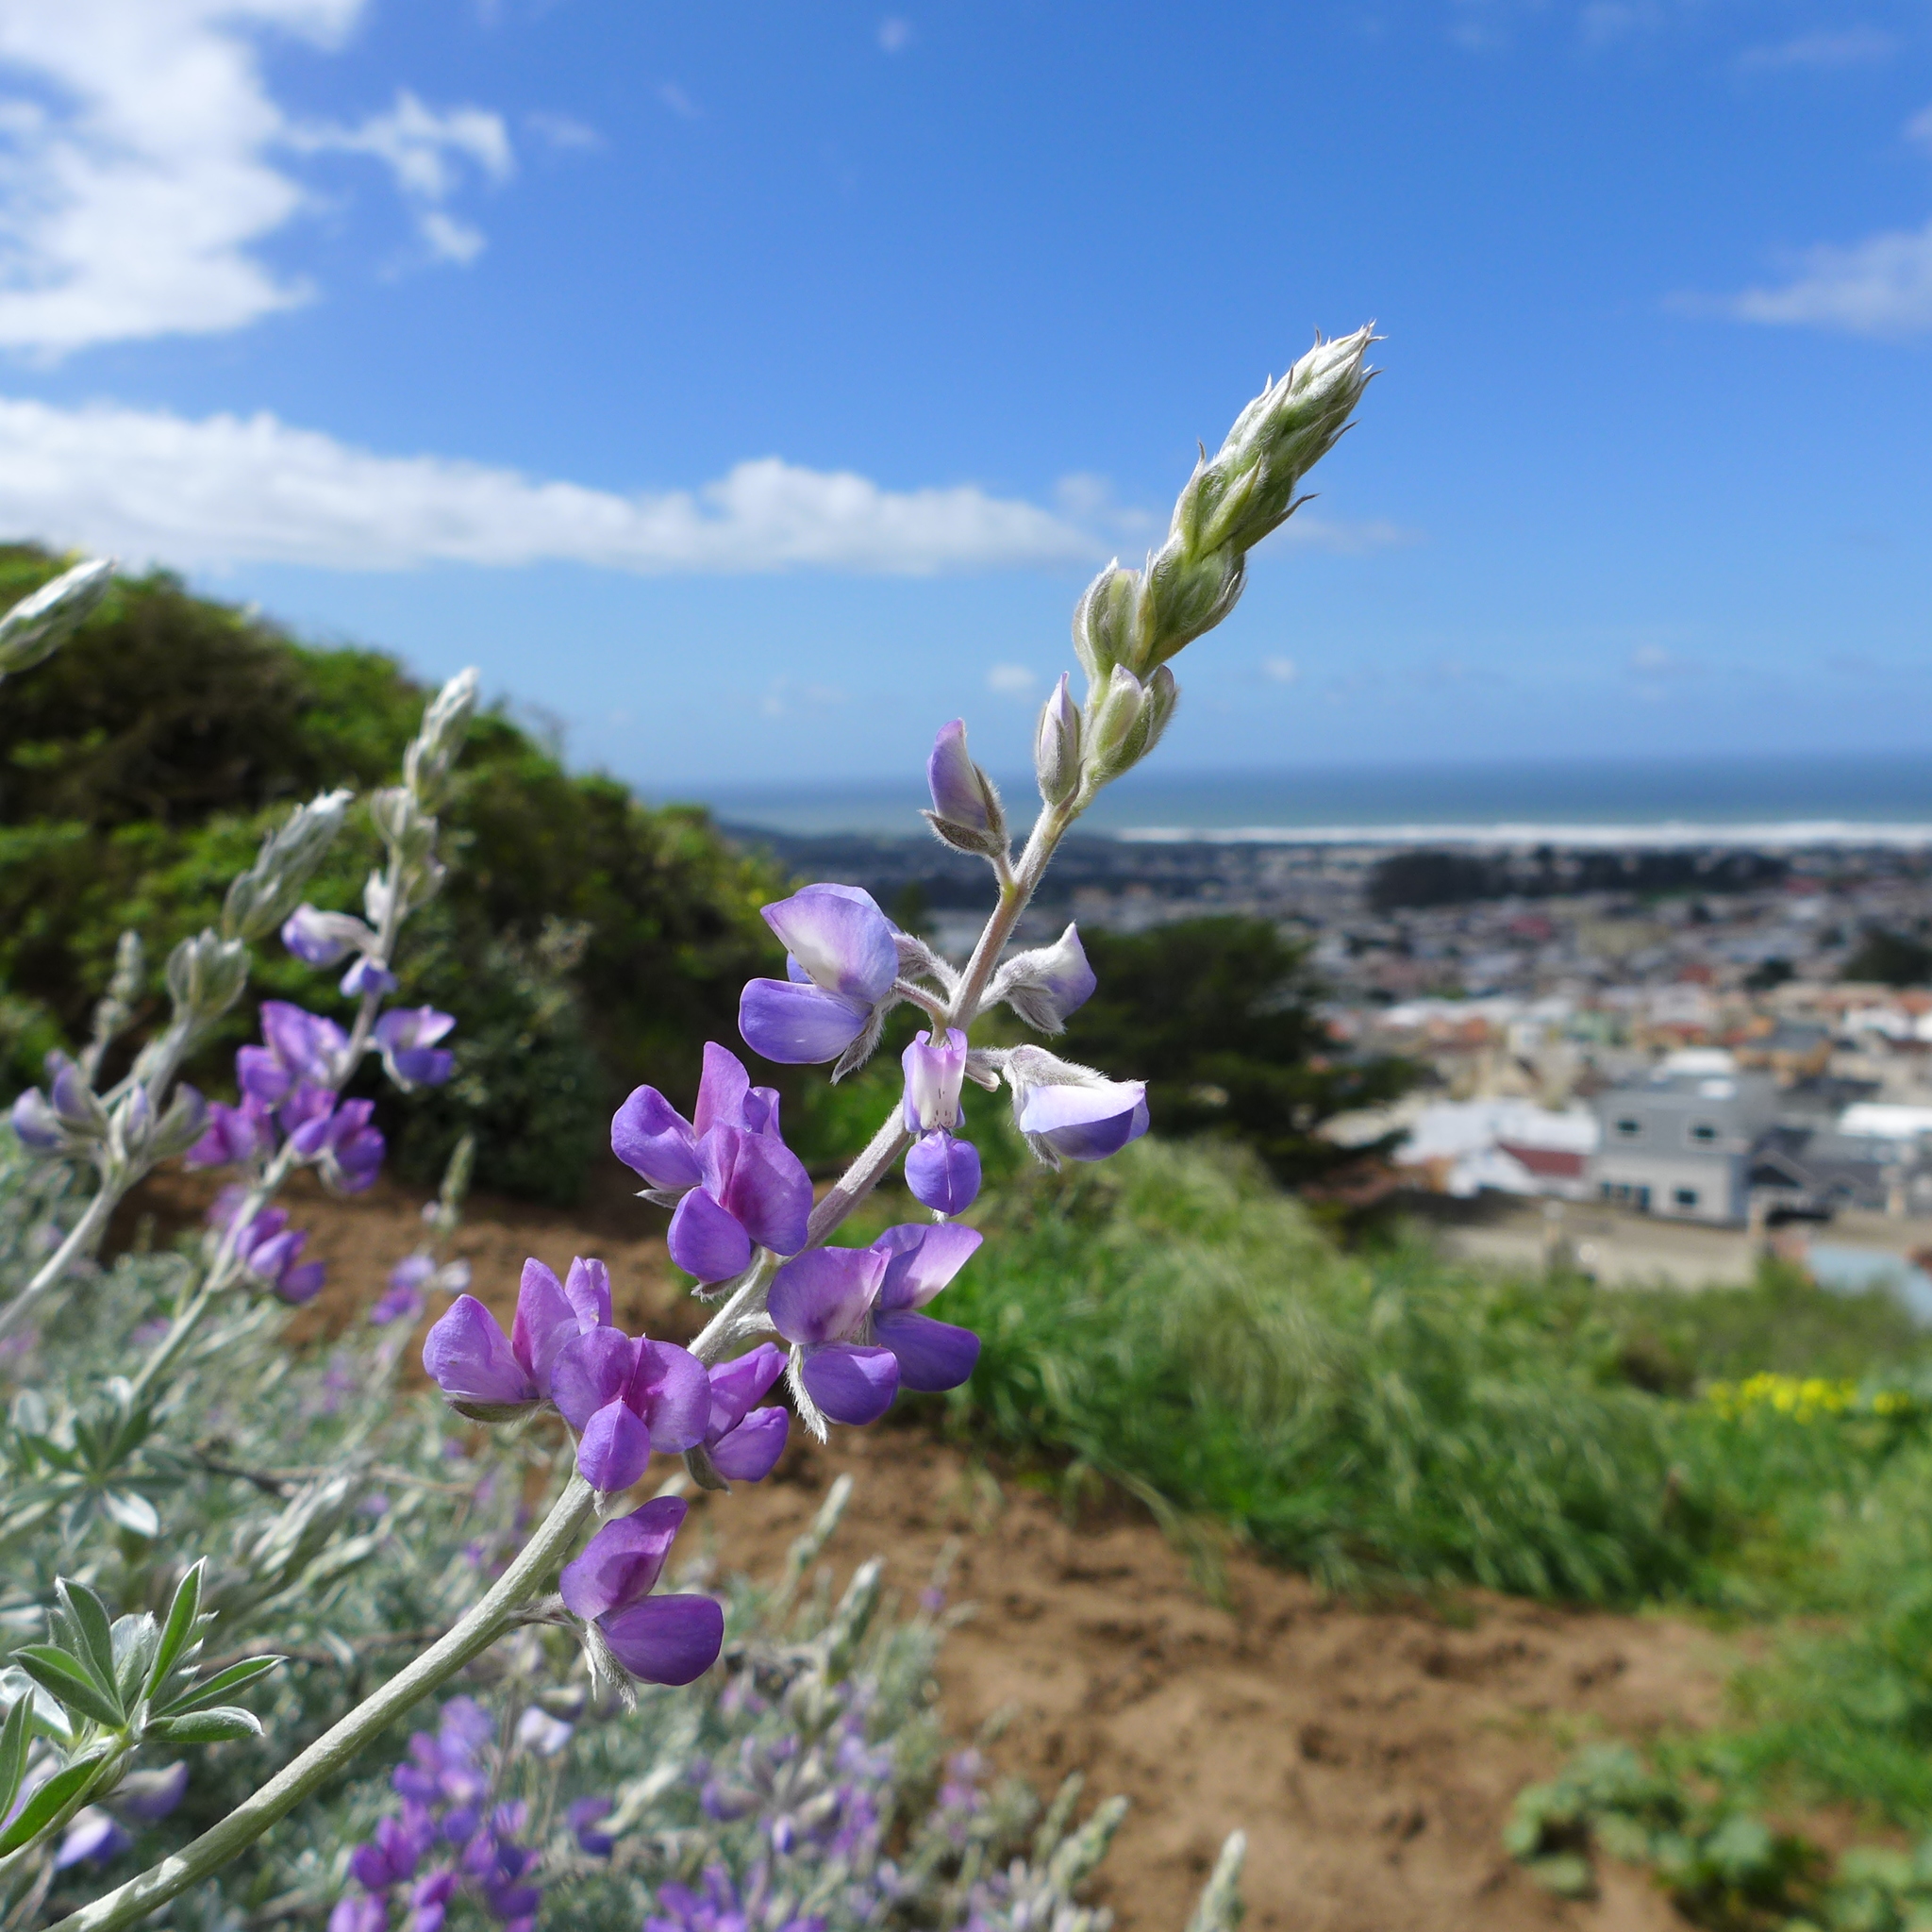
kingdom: Plantae
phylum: Tracheophyta
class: Magnoliopsida
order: Fabales
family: Fabaceae
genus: Lupinus
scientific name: Lupinus chamissonis
